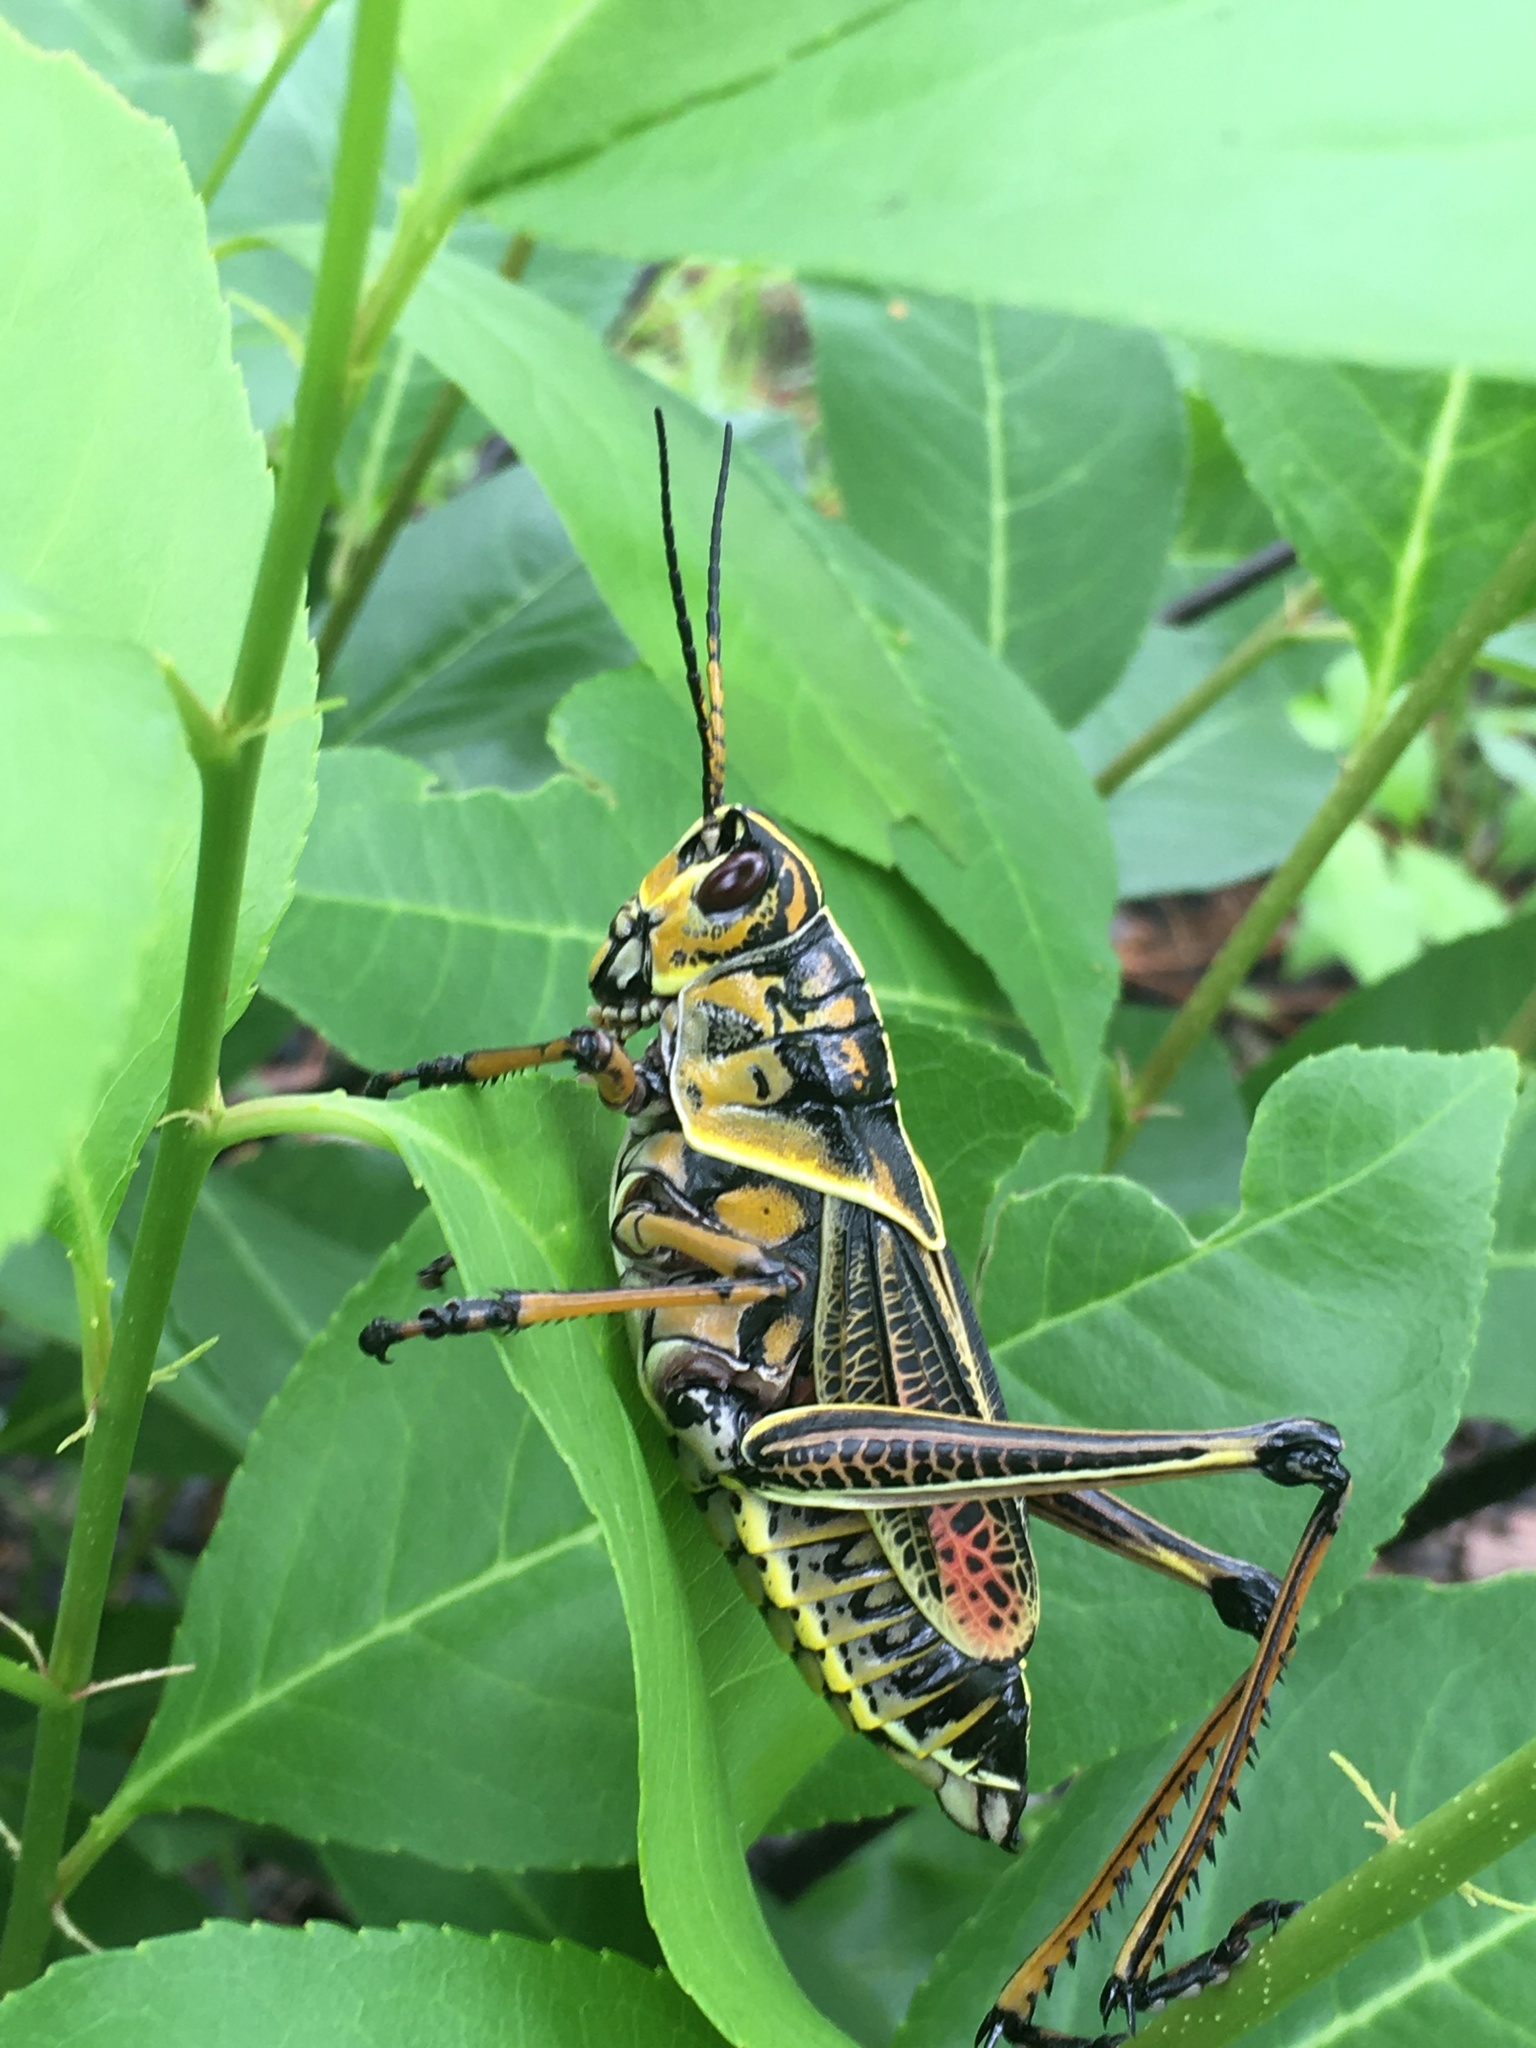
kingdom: Animalia
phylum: Arthropoda
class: Insecta
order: Orthoptera
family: Romaleidae
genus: Romalea
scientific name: Romalea microptera
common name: Eastern lubber grasshopper
